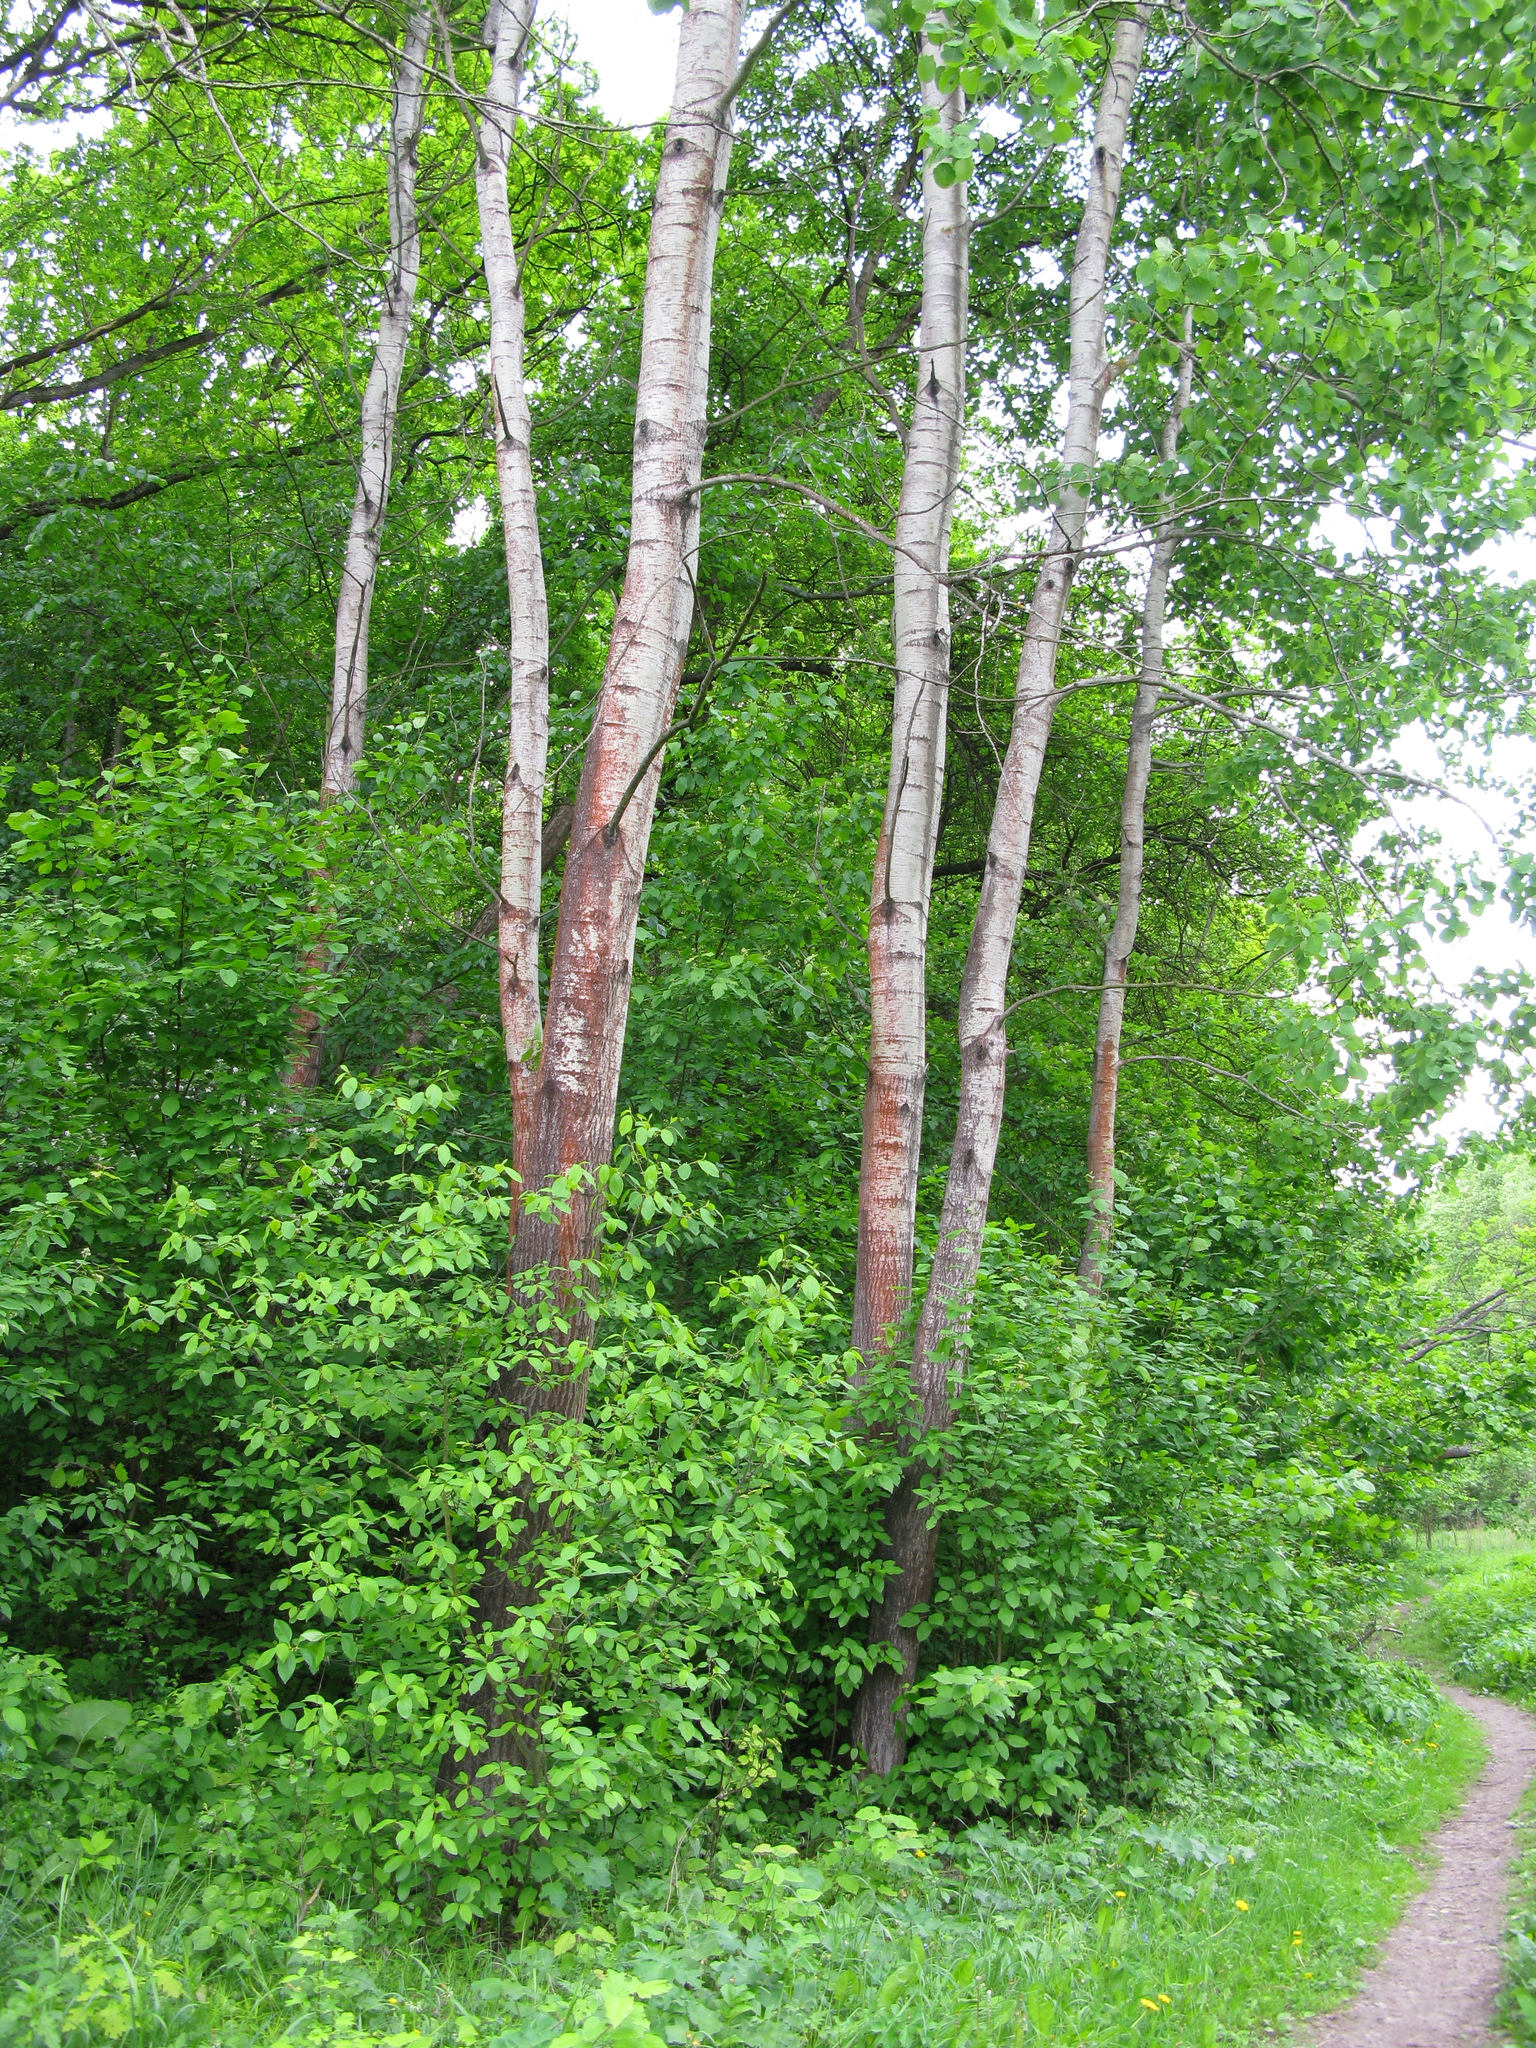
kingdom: Plantae
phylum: Tracheophyta
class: Magnoliopsida
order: Malpighiales
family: Salicaceae
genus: Populus
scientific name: Populus tremula
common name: European aspen
